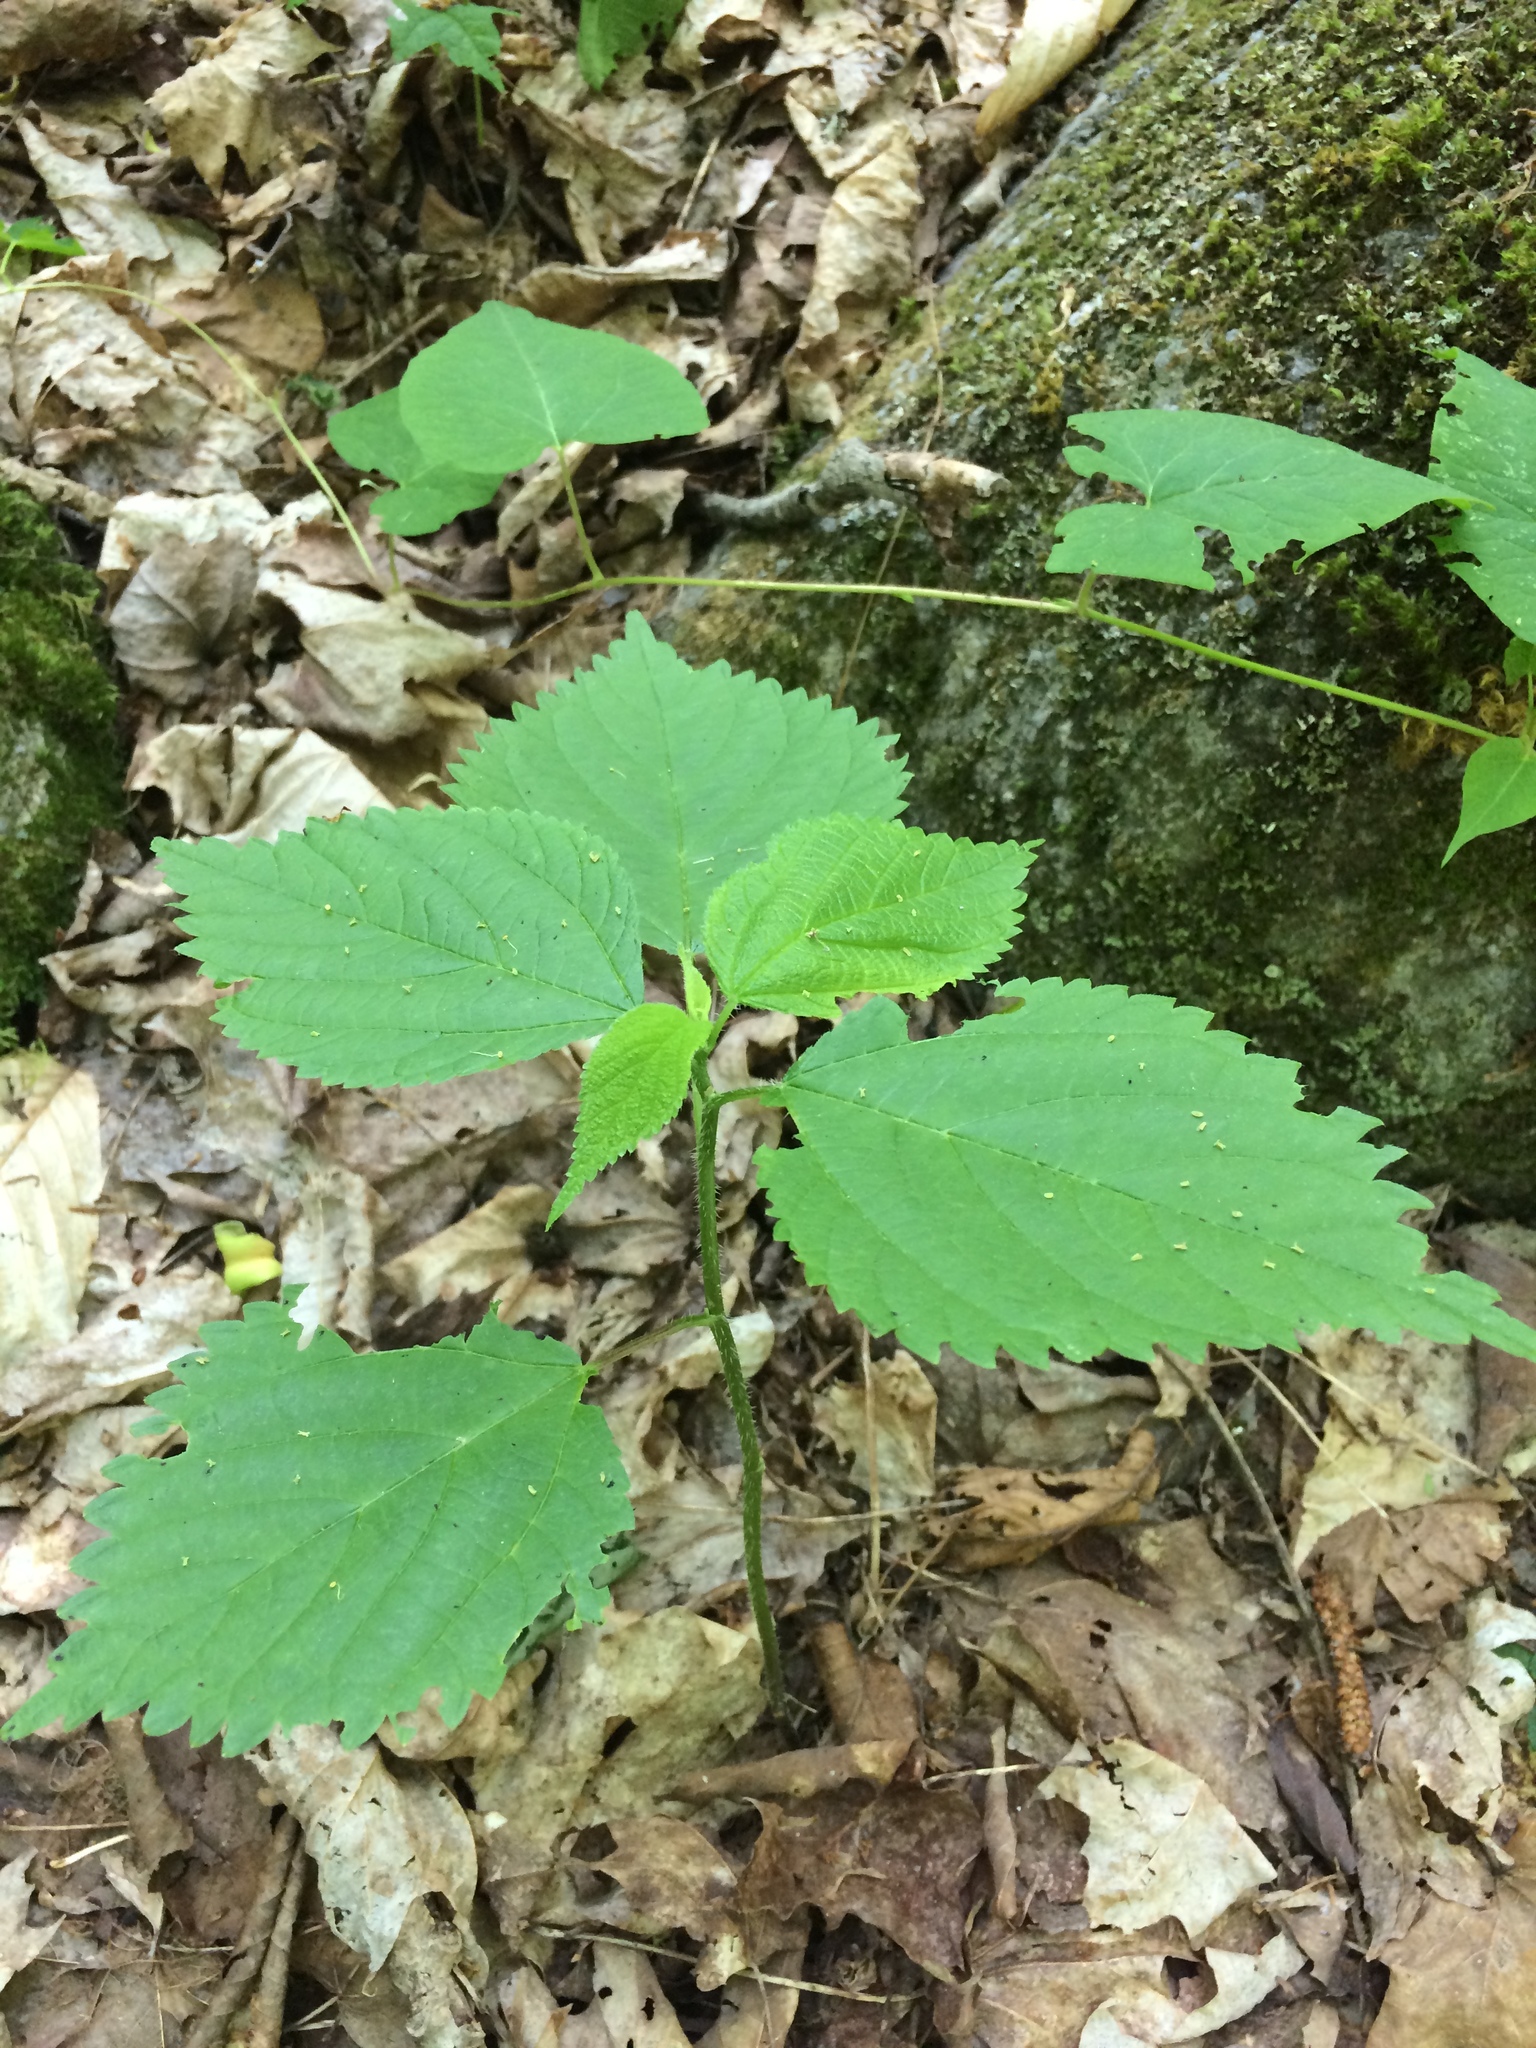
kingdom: Plantae
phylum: Tracheophyta
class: Magnoliopsida
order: Rosales
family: Urticaceae
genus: Laportea
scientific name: Laportea canadensis
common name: Canada nettle
